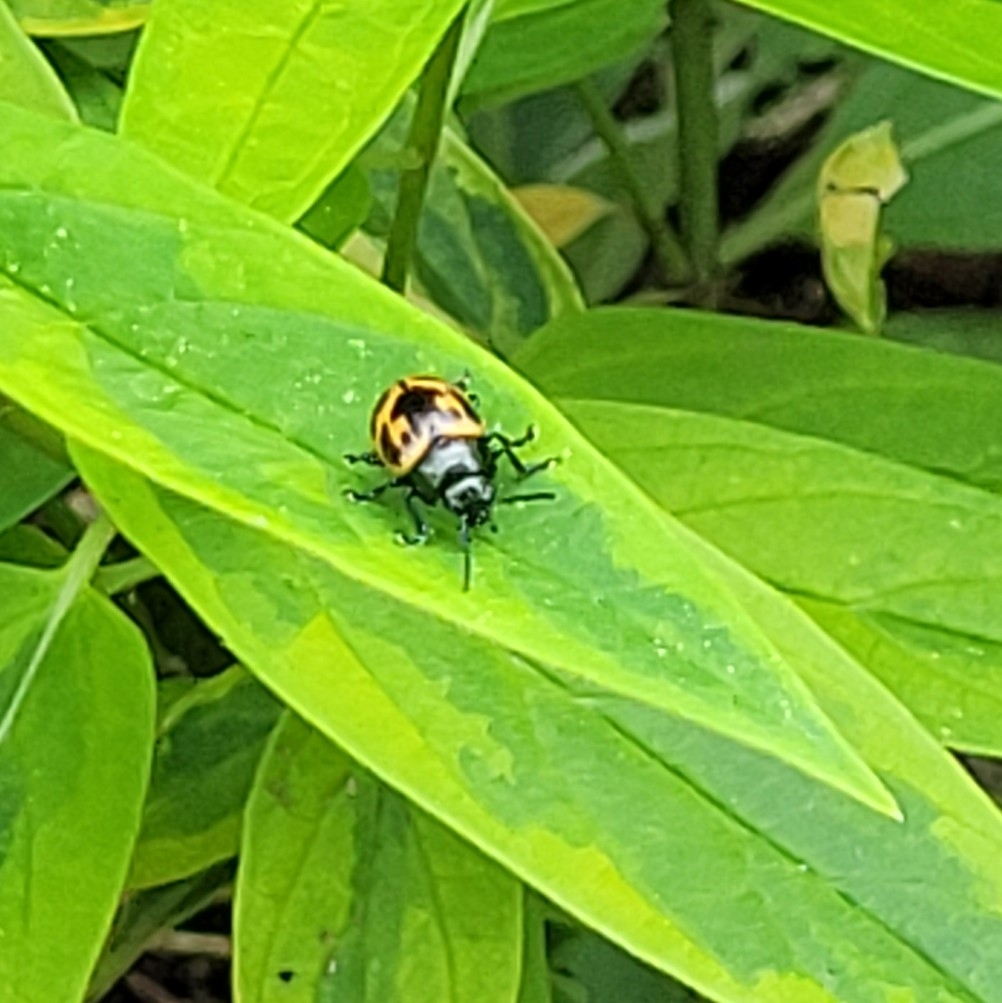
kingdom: Animalia
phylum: Arthropoda
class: Insecta
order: Coleoptera
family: Chrysomelidae
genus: Labidomera
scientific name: Labidomera clivicollis
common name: Swamp milkweed leaf beetle
